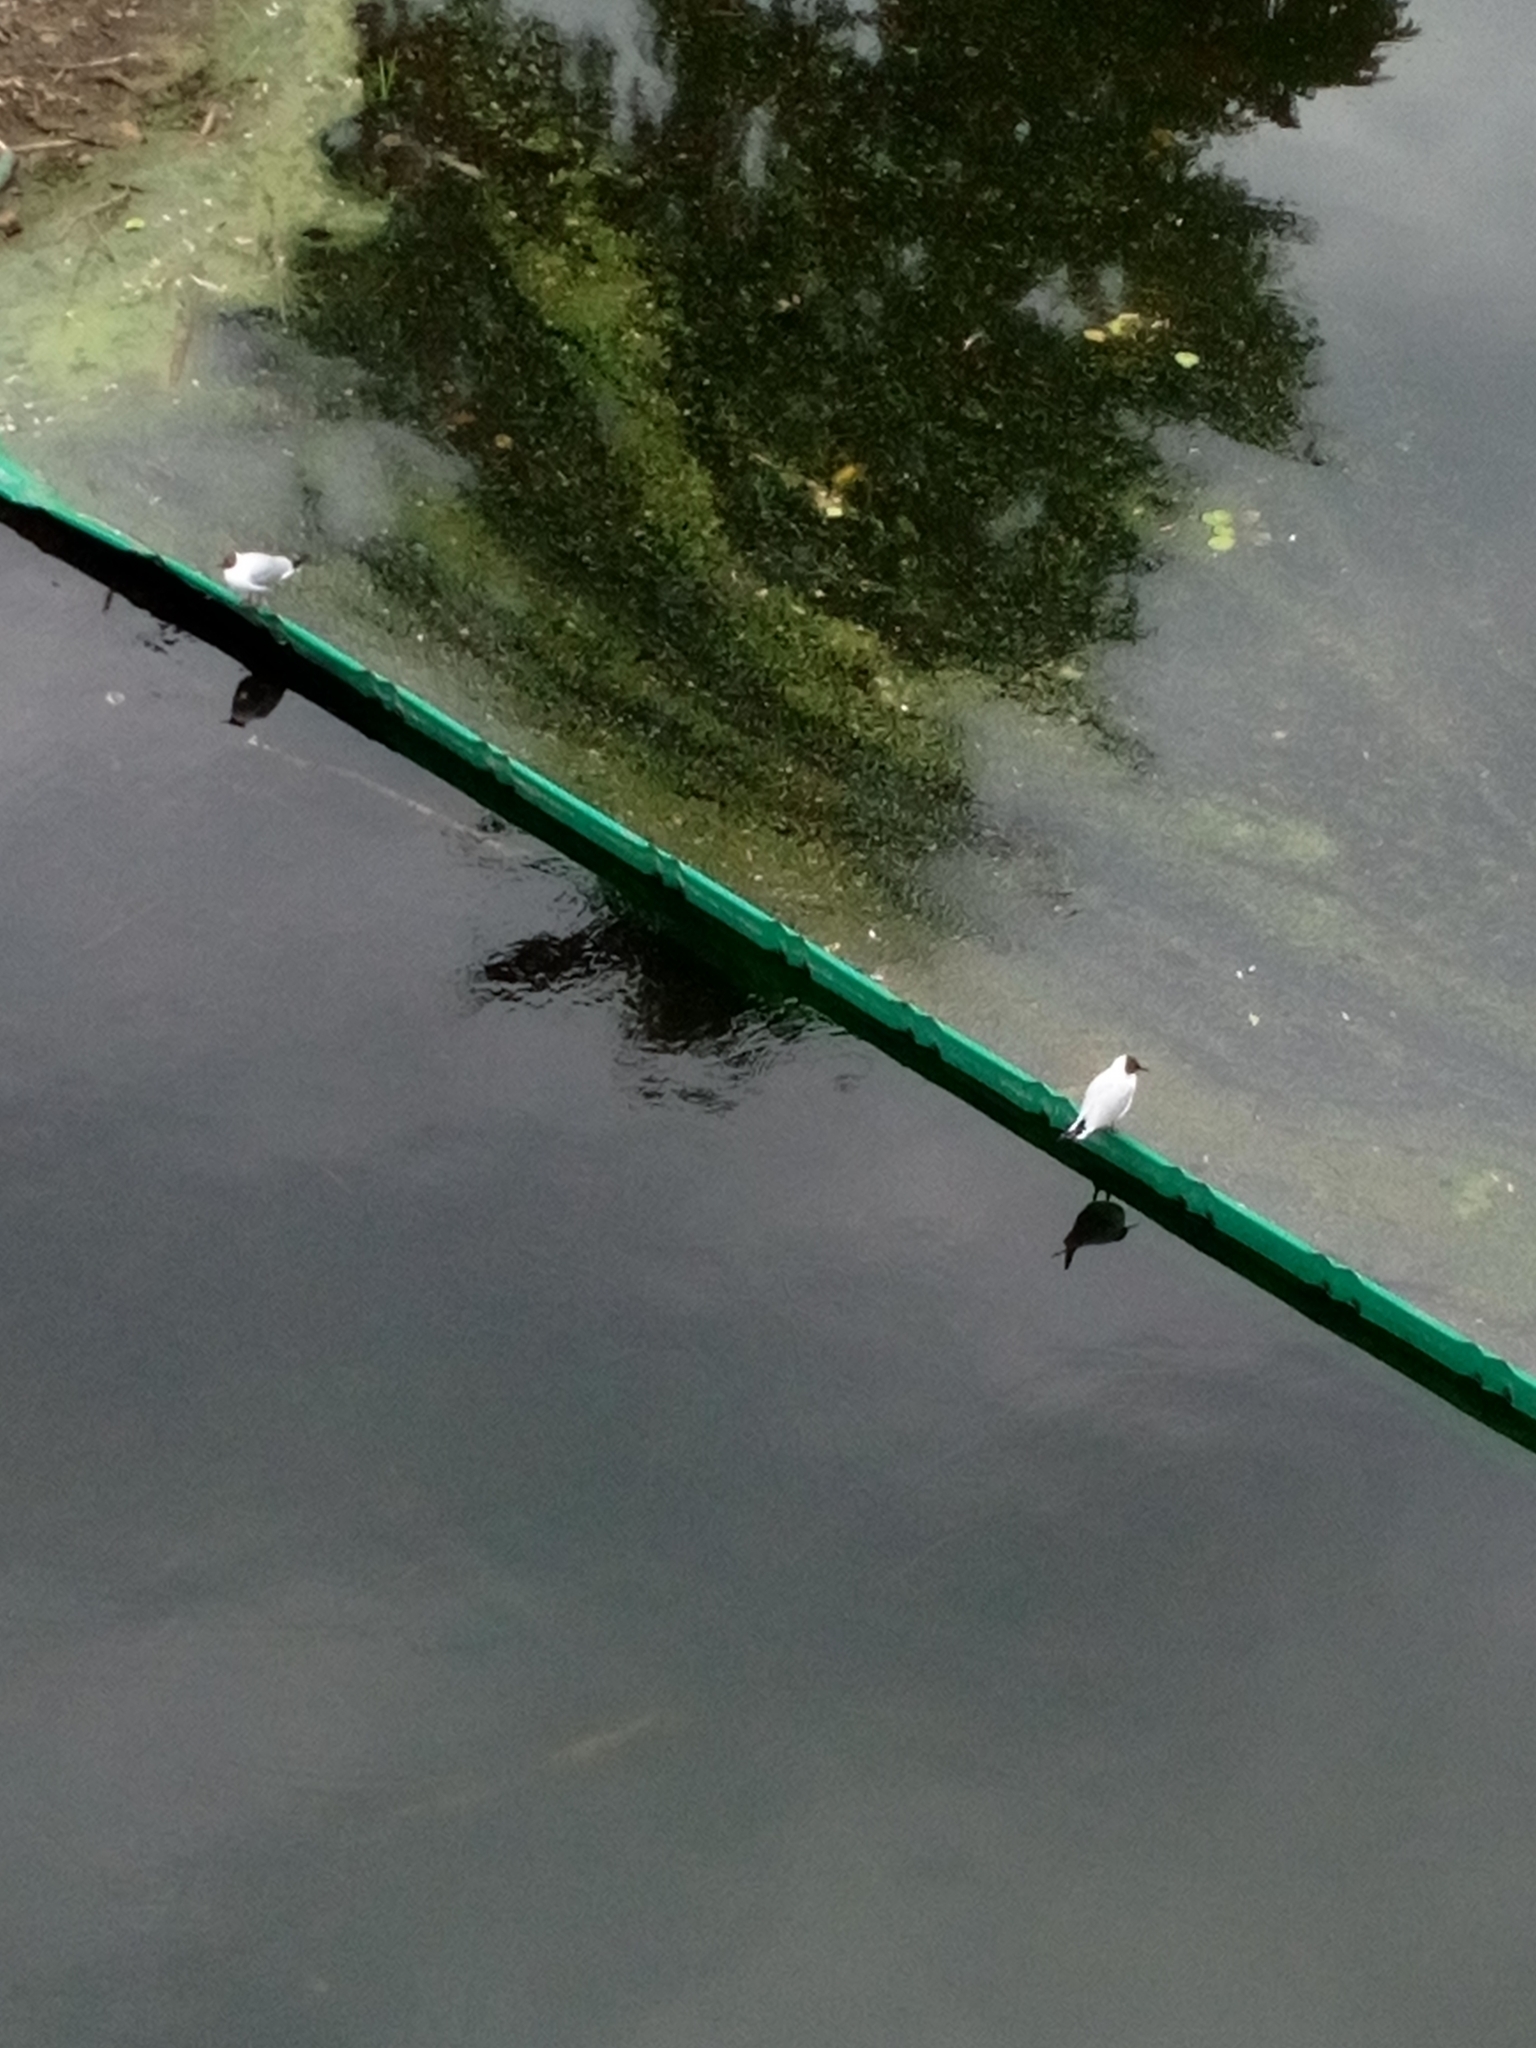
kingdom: Animalia
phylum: Chordata
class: Aves
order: Charadriiformes
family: Laridae
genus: Chroicocephalus
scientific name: Chroicocephalus ridibundus
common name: Black-headed gull
